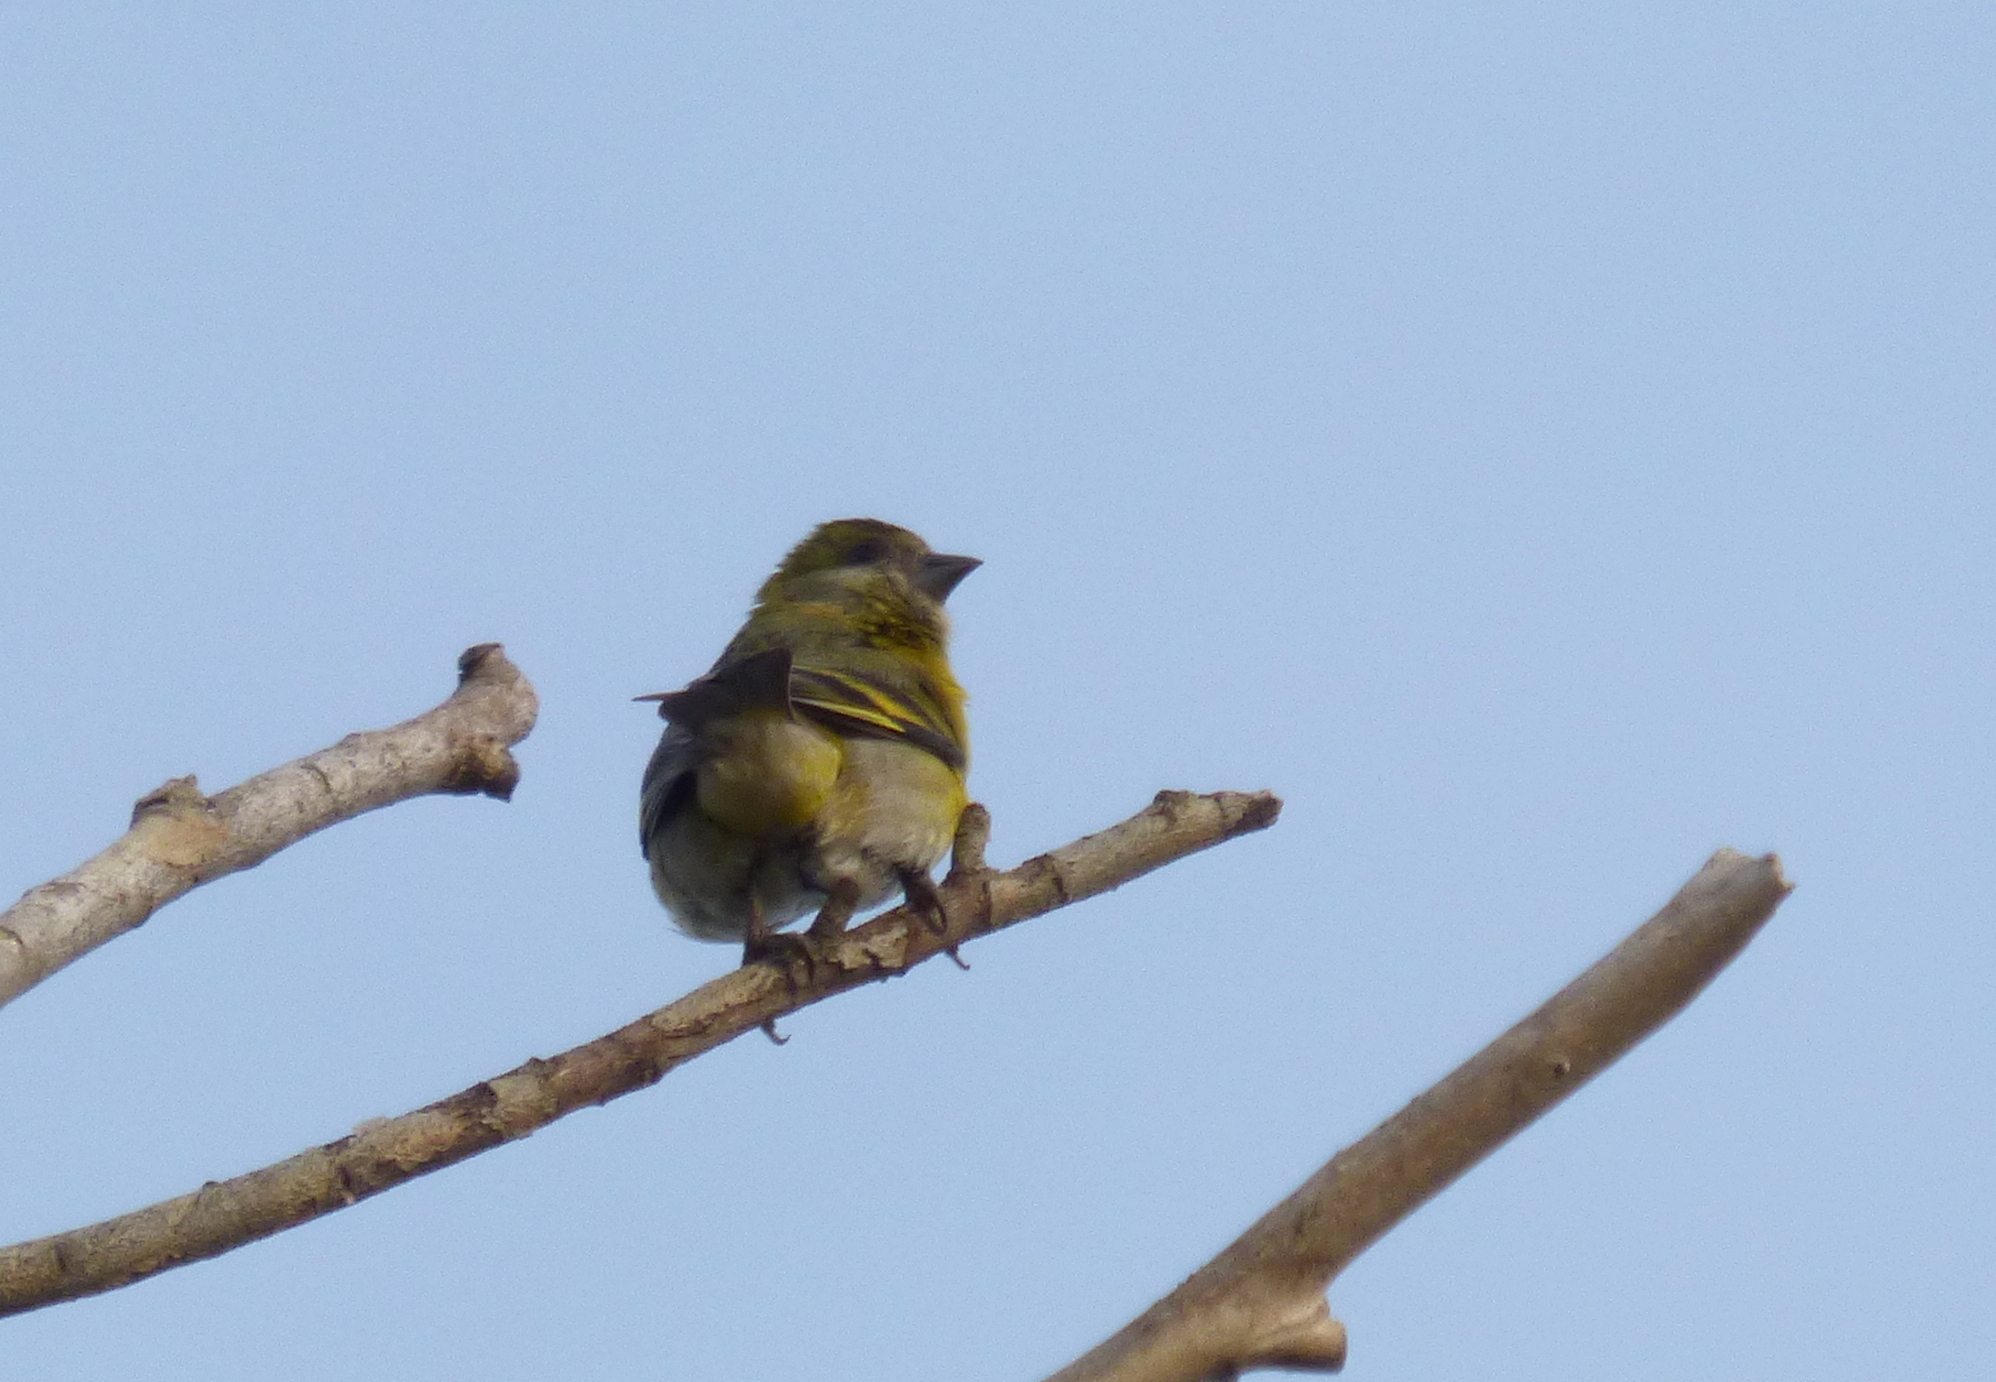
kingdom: Animalia
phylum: Chordata
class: Aves
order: Passeriformes
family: Fringillidae
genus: Spinus
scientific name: Spinus magellanicus
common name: Hooded siskin
